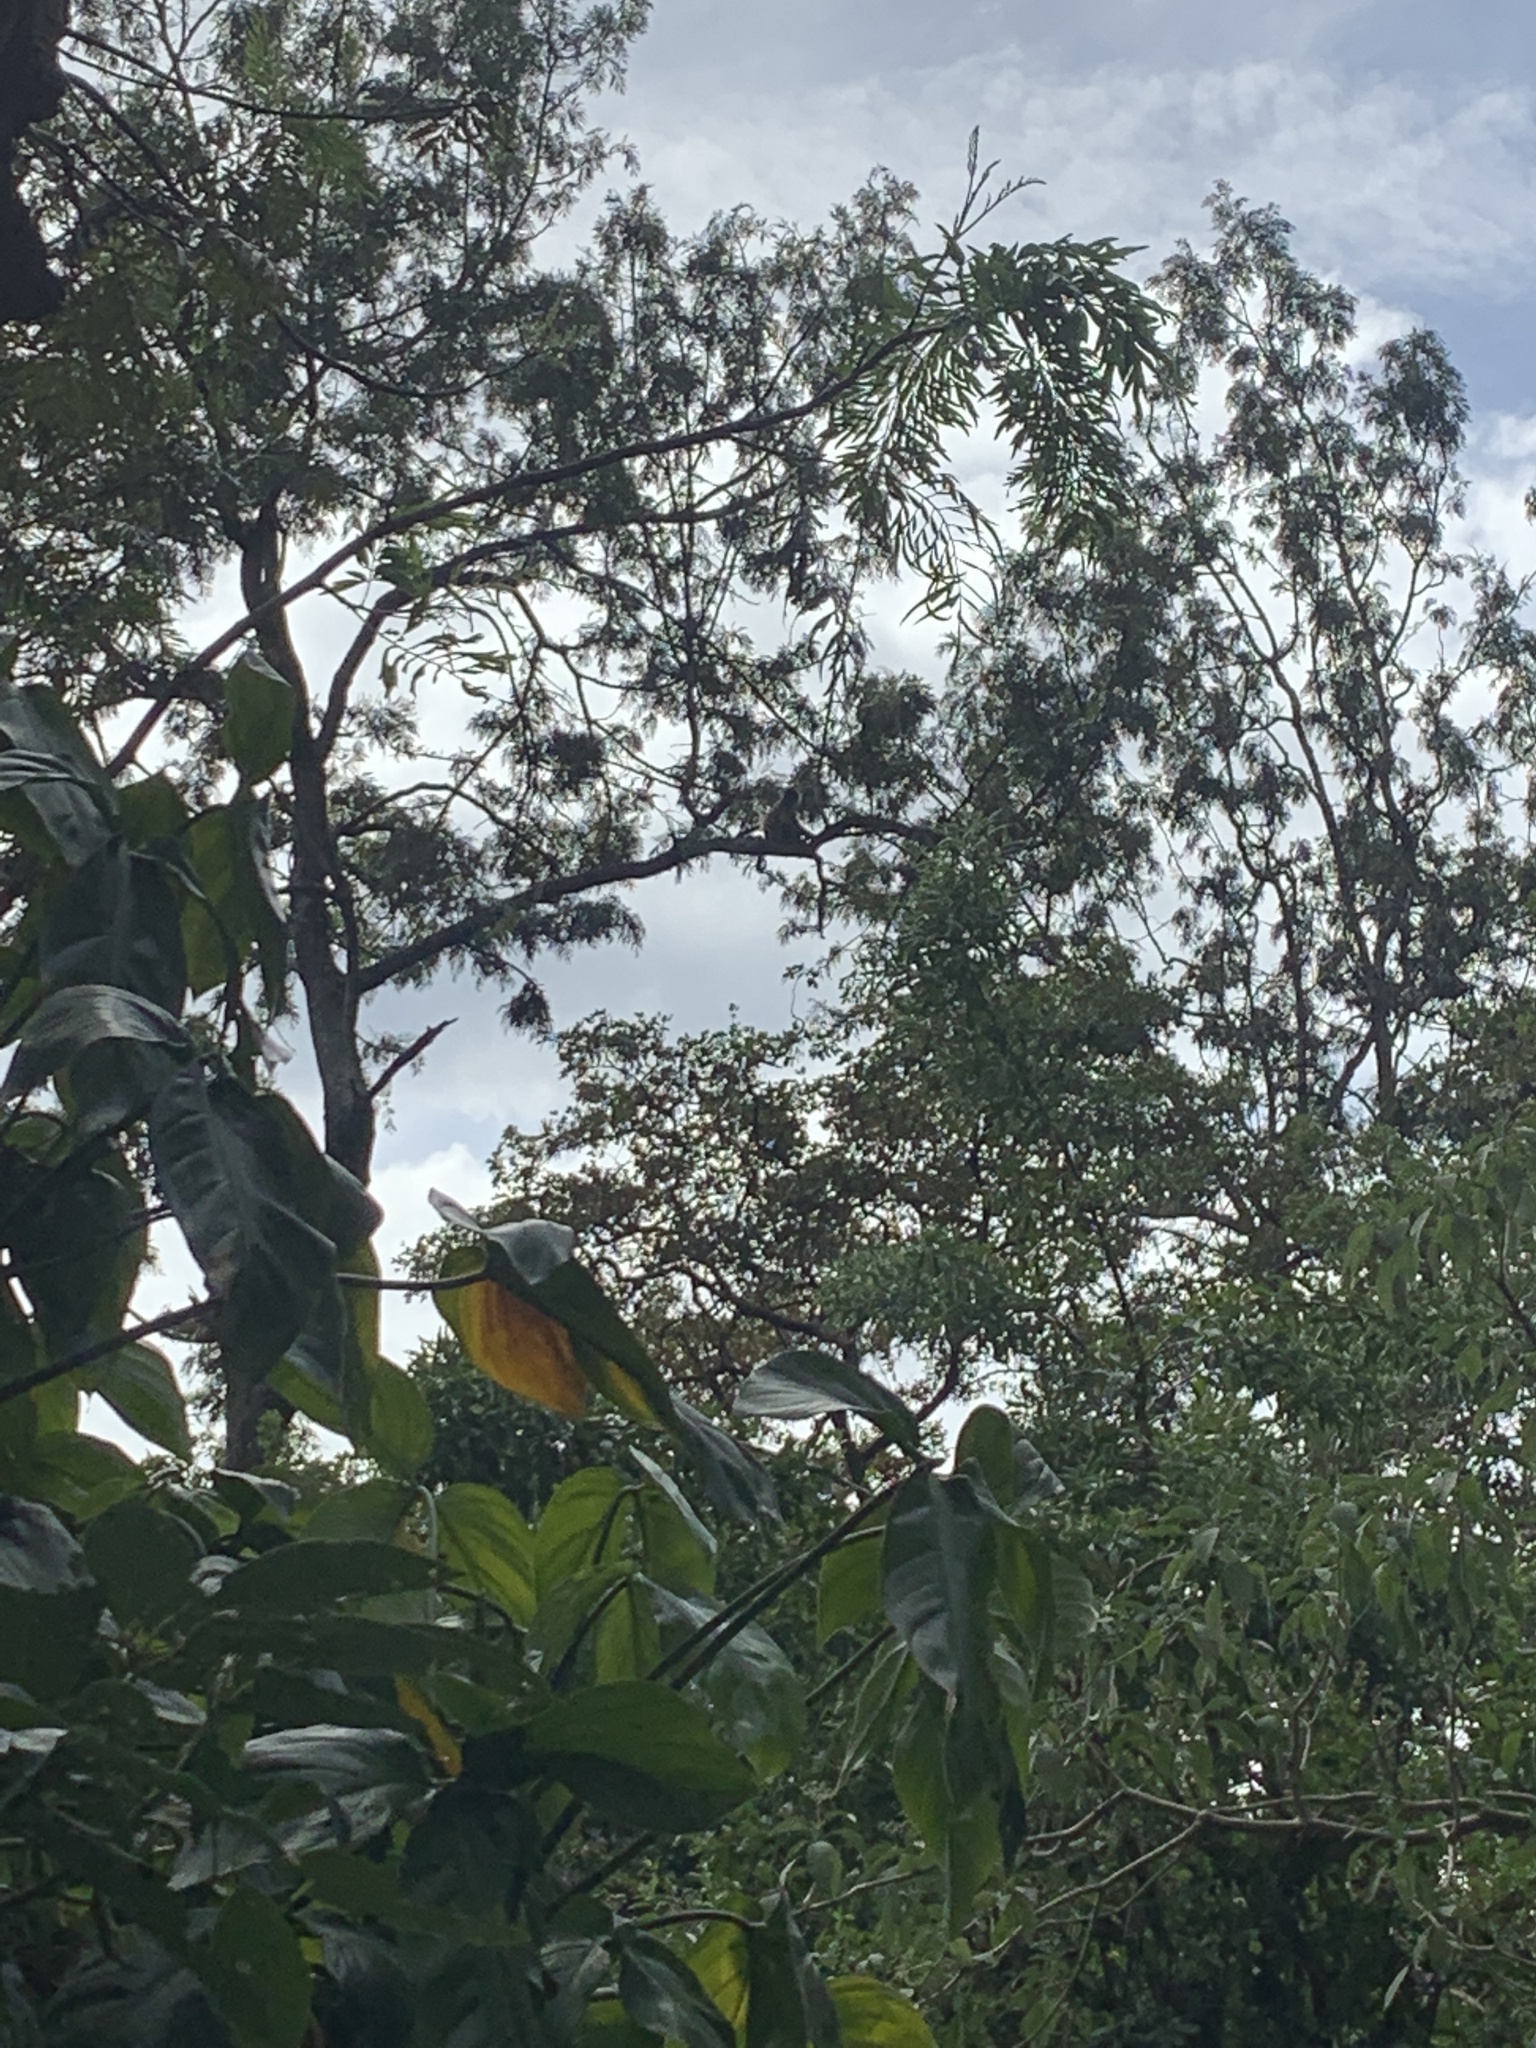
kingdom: Animalia
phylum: Chordata
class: Mammalia
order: Primates
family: Atelidae
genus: Ateles
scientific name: Ateles geoffroyi
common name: Black-handed spider monkey
